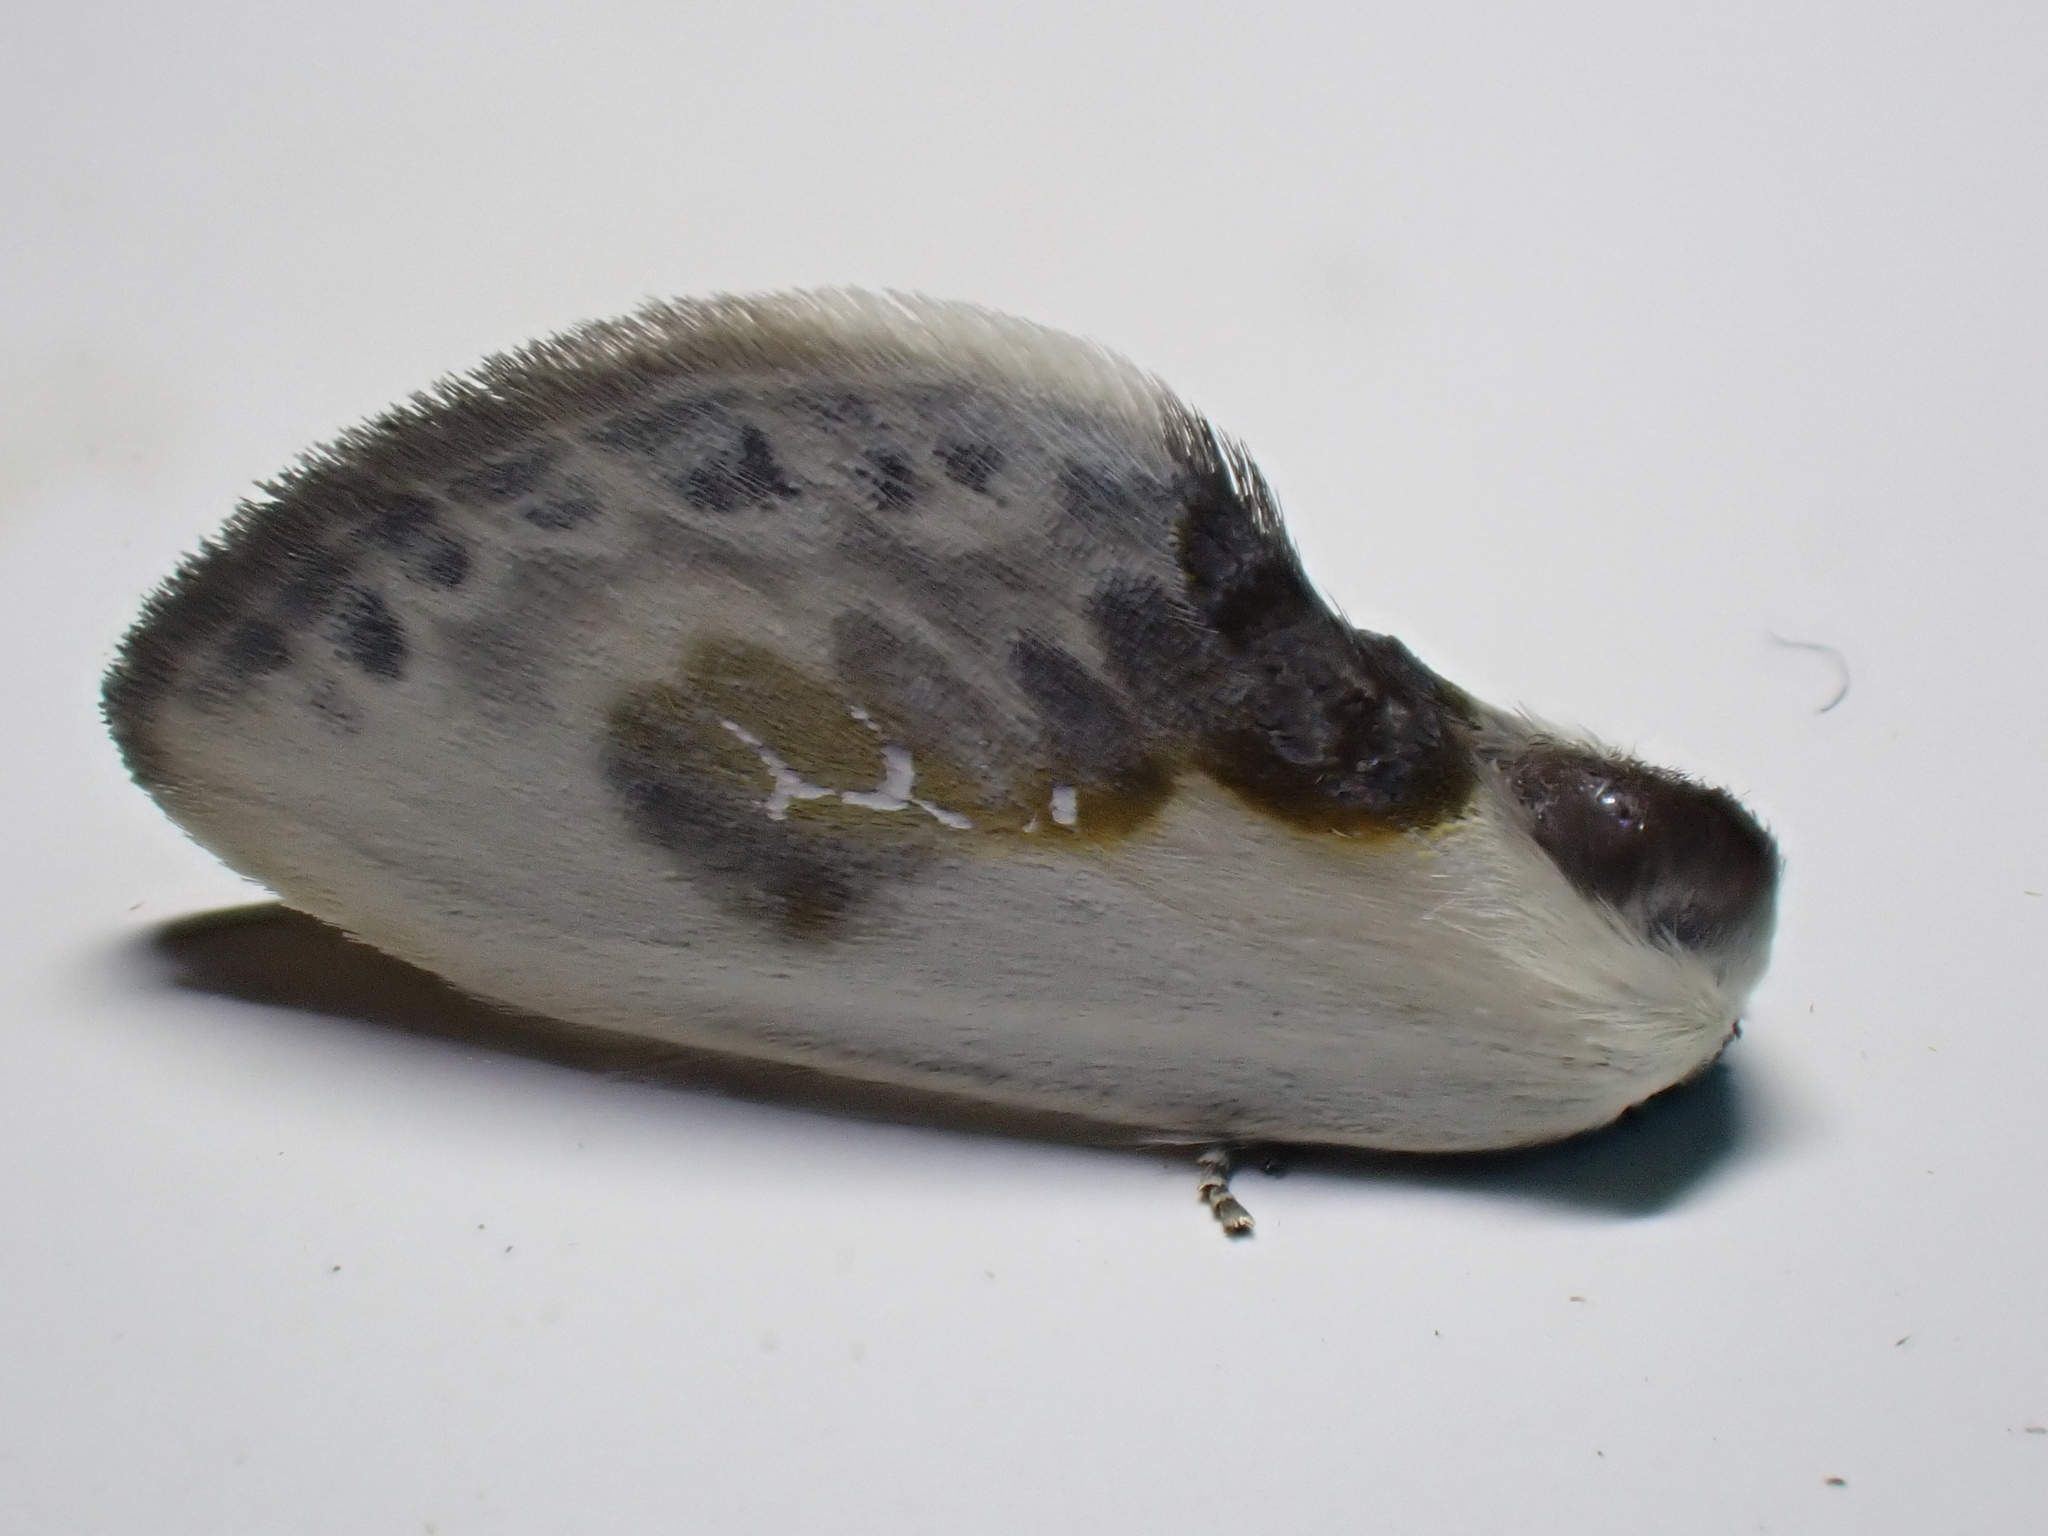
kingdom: Animalia
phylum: Arthropoda
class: Insecta
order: Lepidoptera
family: Drepanidae
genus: Cilix
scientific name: Cilix glaucata
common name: Chinese character
